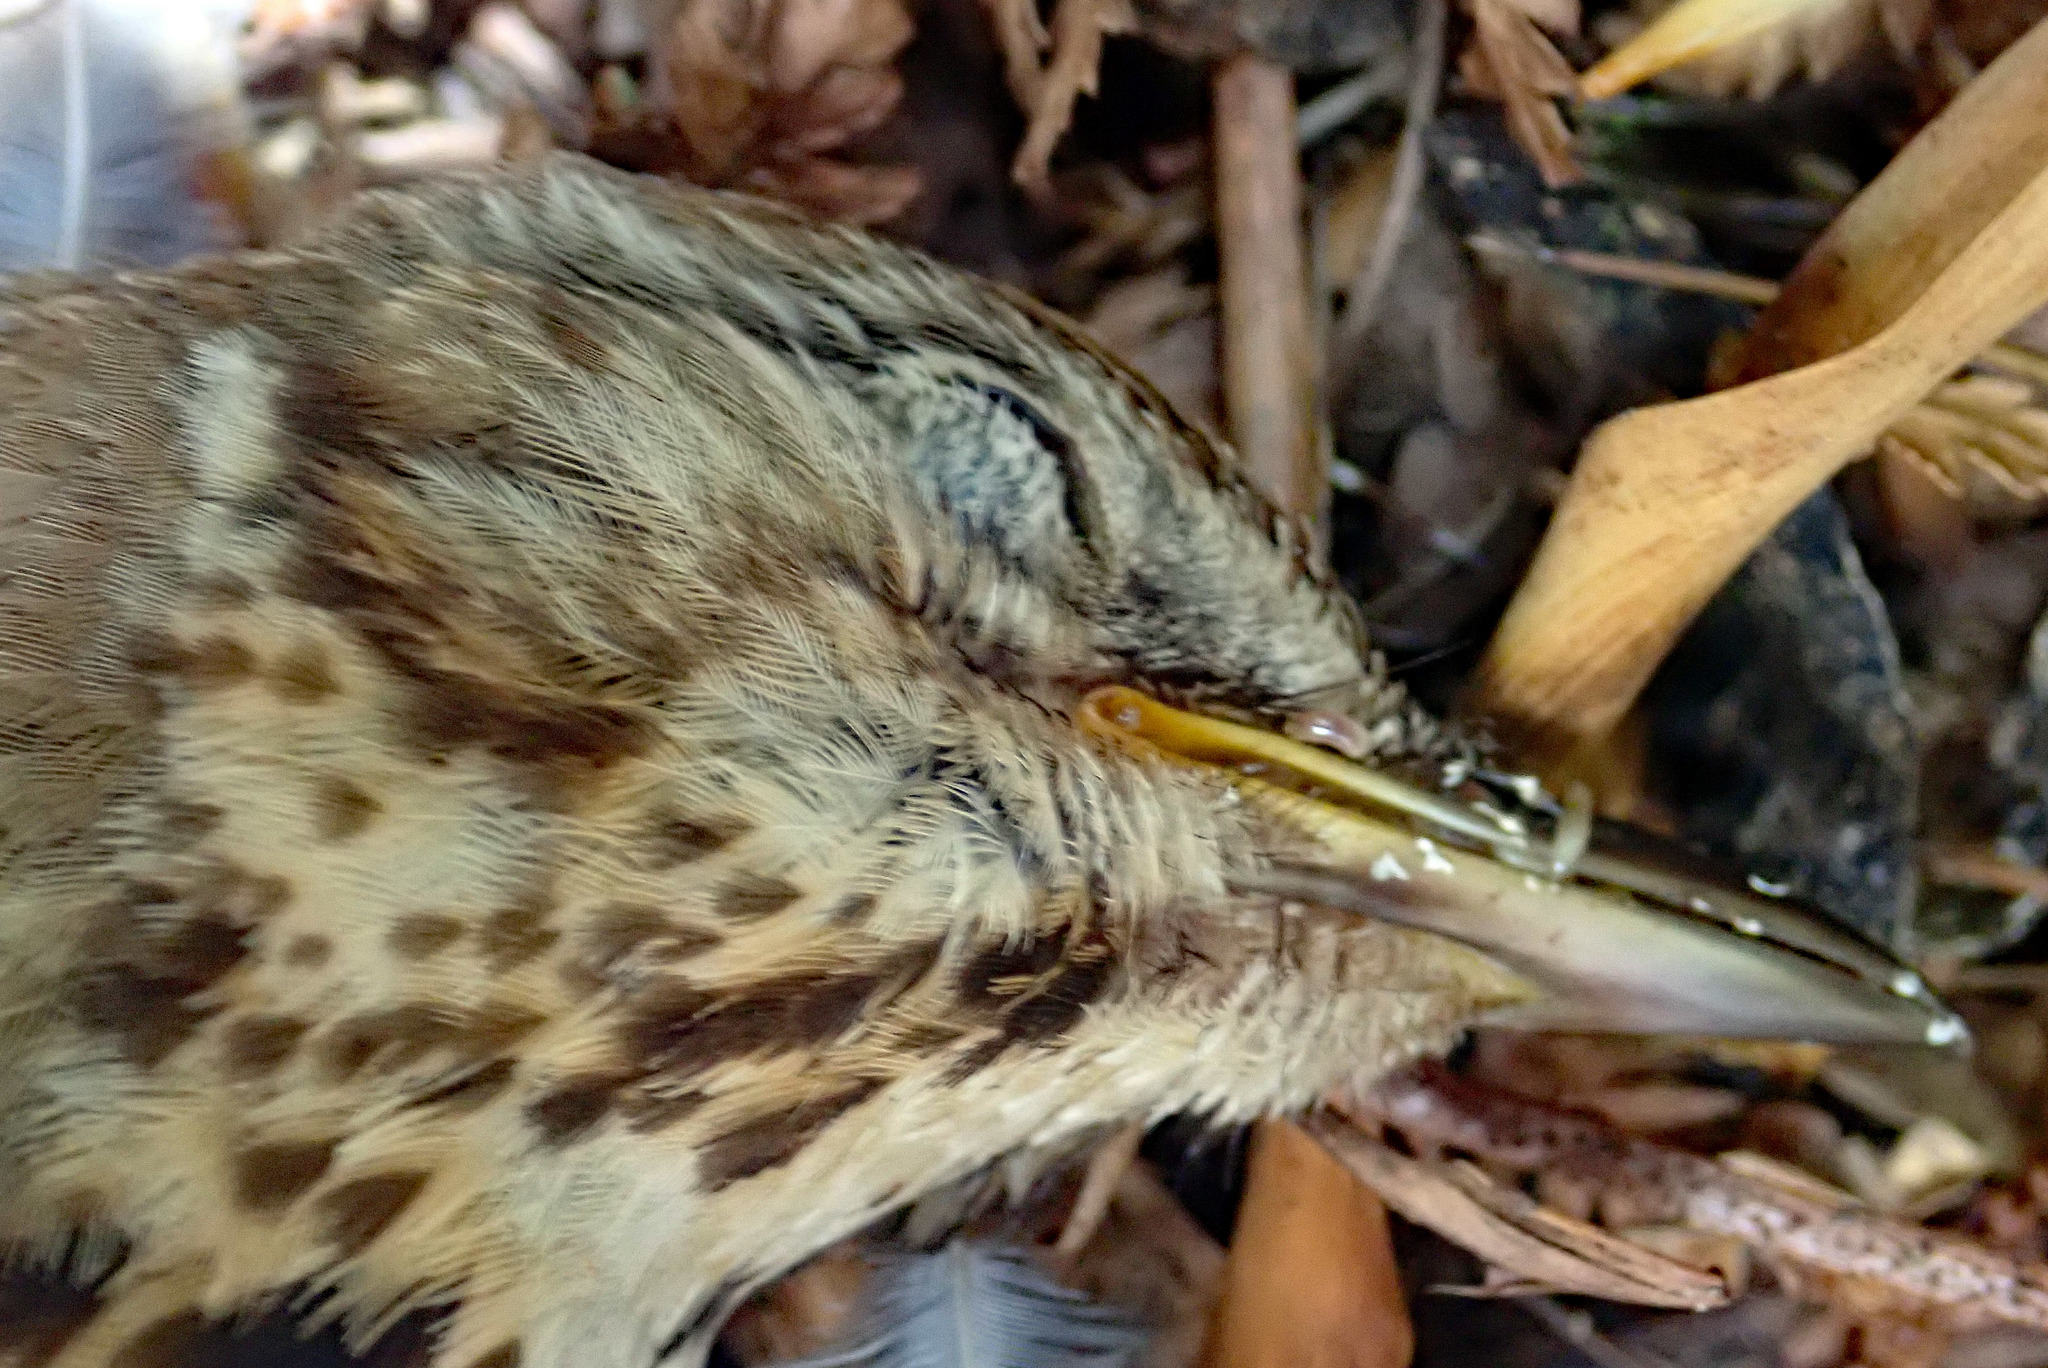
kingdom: Animalia
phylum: Chordata
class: Aves
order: Passeriformes
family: Turdidae
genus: Turdus
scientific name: Turdus philomelos
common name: Song thrush
